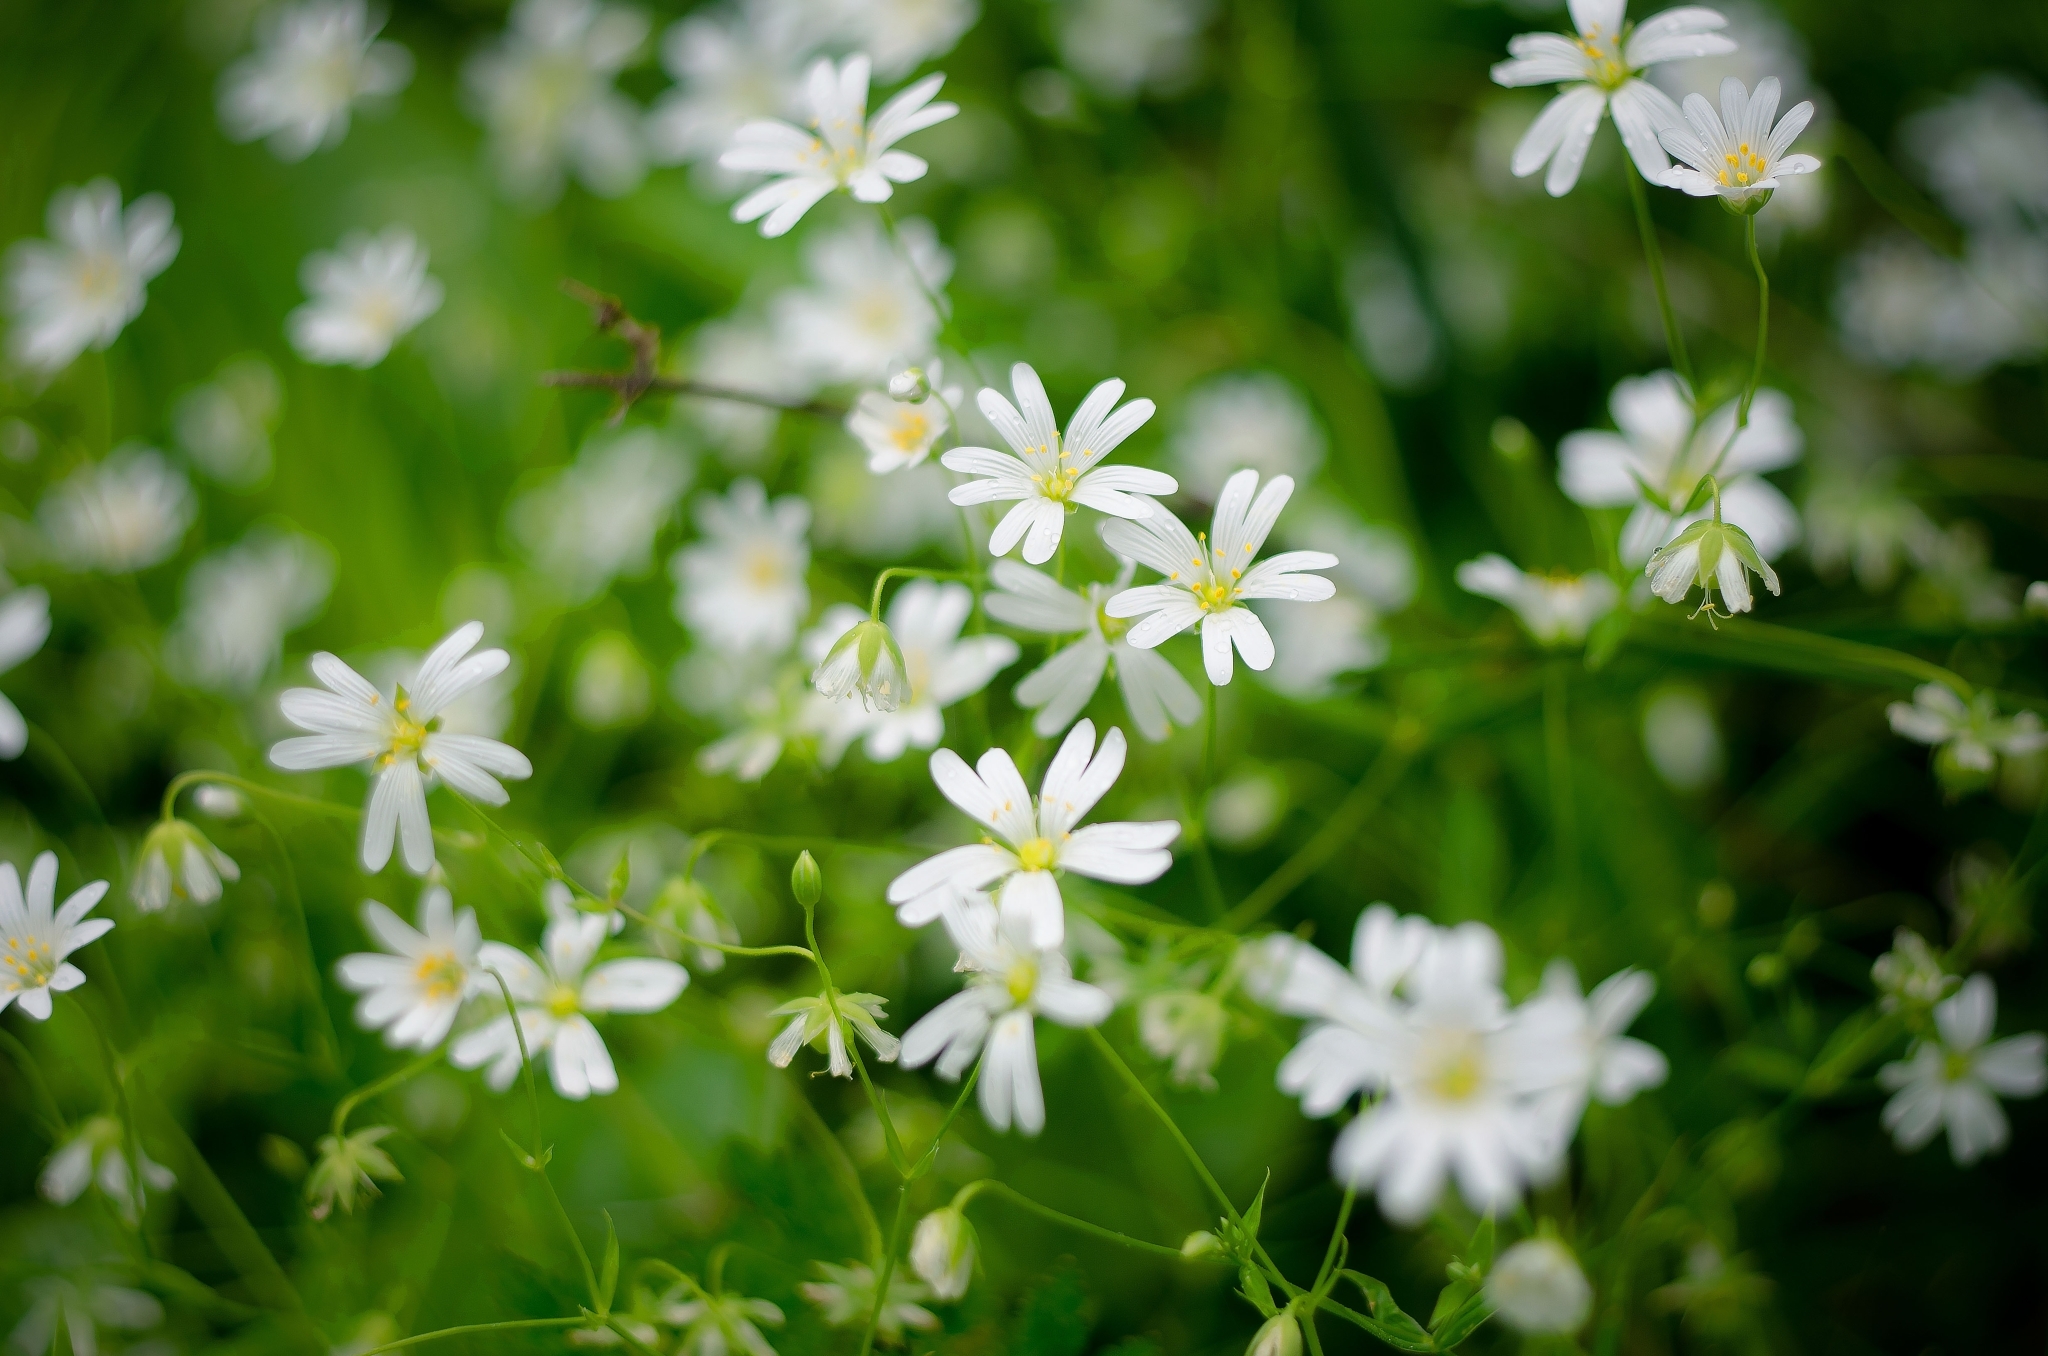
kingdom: Plantae
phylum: Tracheophyta
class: Magnoliopsida
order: Caryophyllales
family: Caryophyllaceae
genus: Rabelera
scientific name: Rabelera holostea
